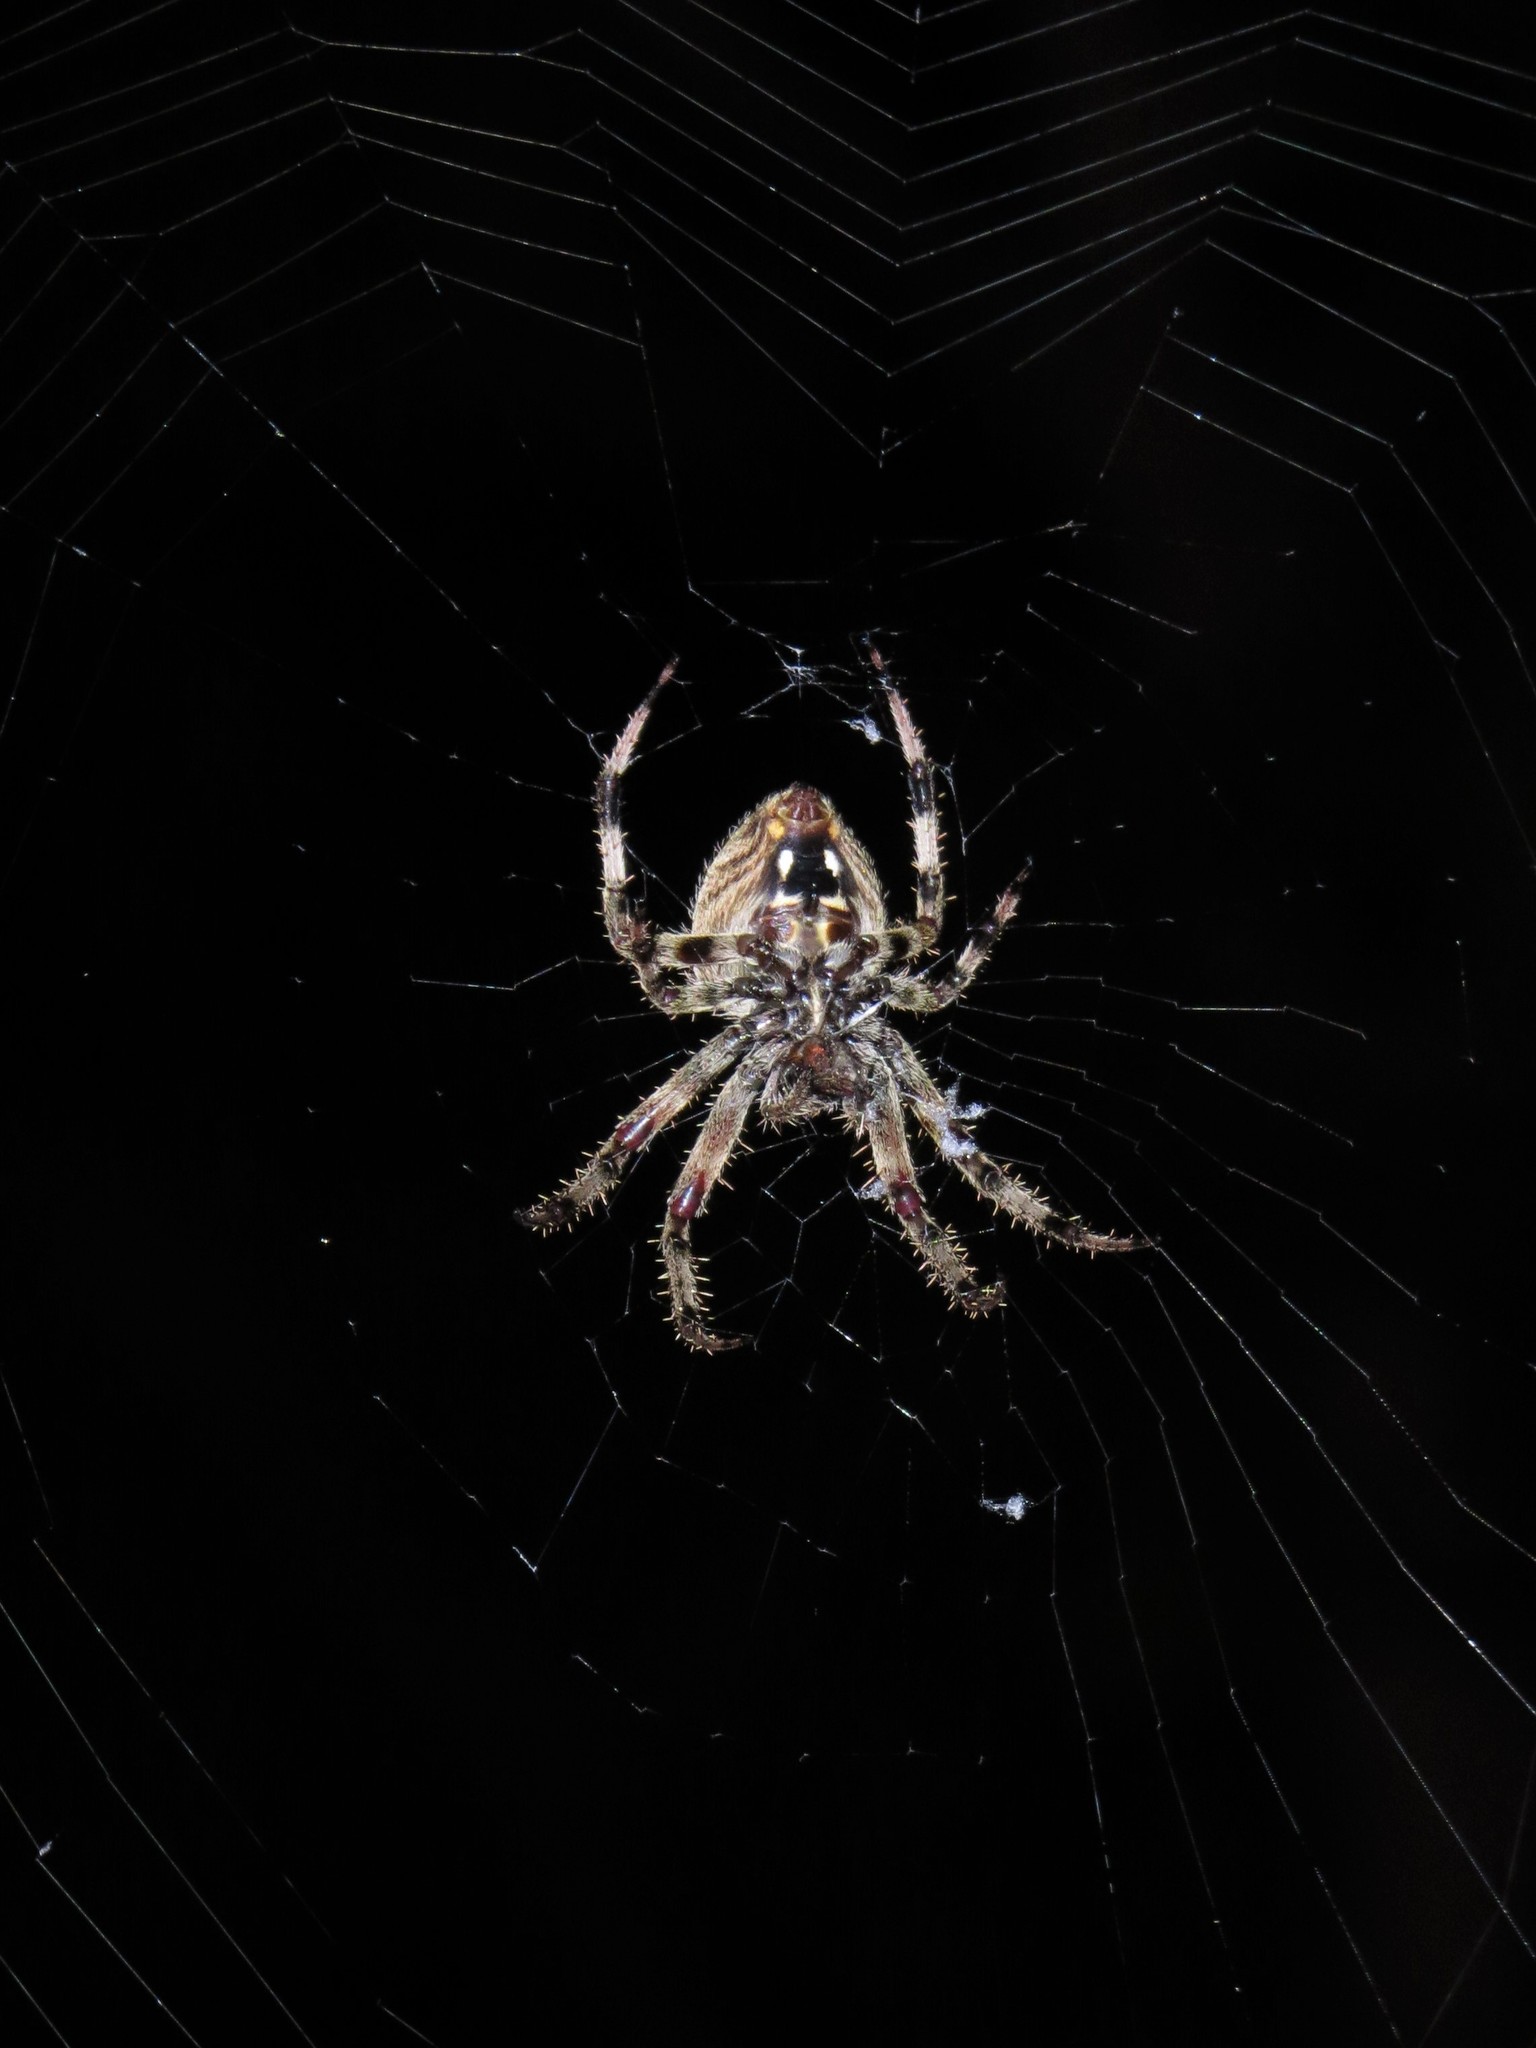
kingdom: Animalia
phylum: Arthropoda
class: Arachnida
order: Araneae
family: Araneidae
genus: Neoscona
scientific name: Neoscona crucifera
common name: Spotted orbweaver
